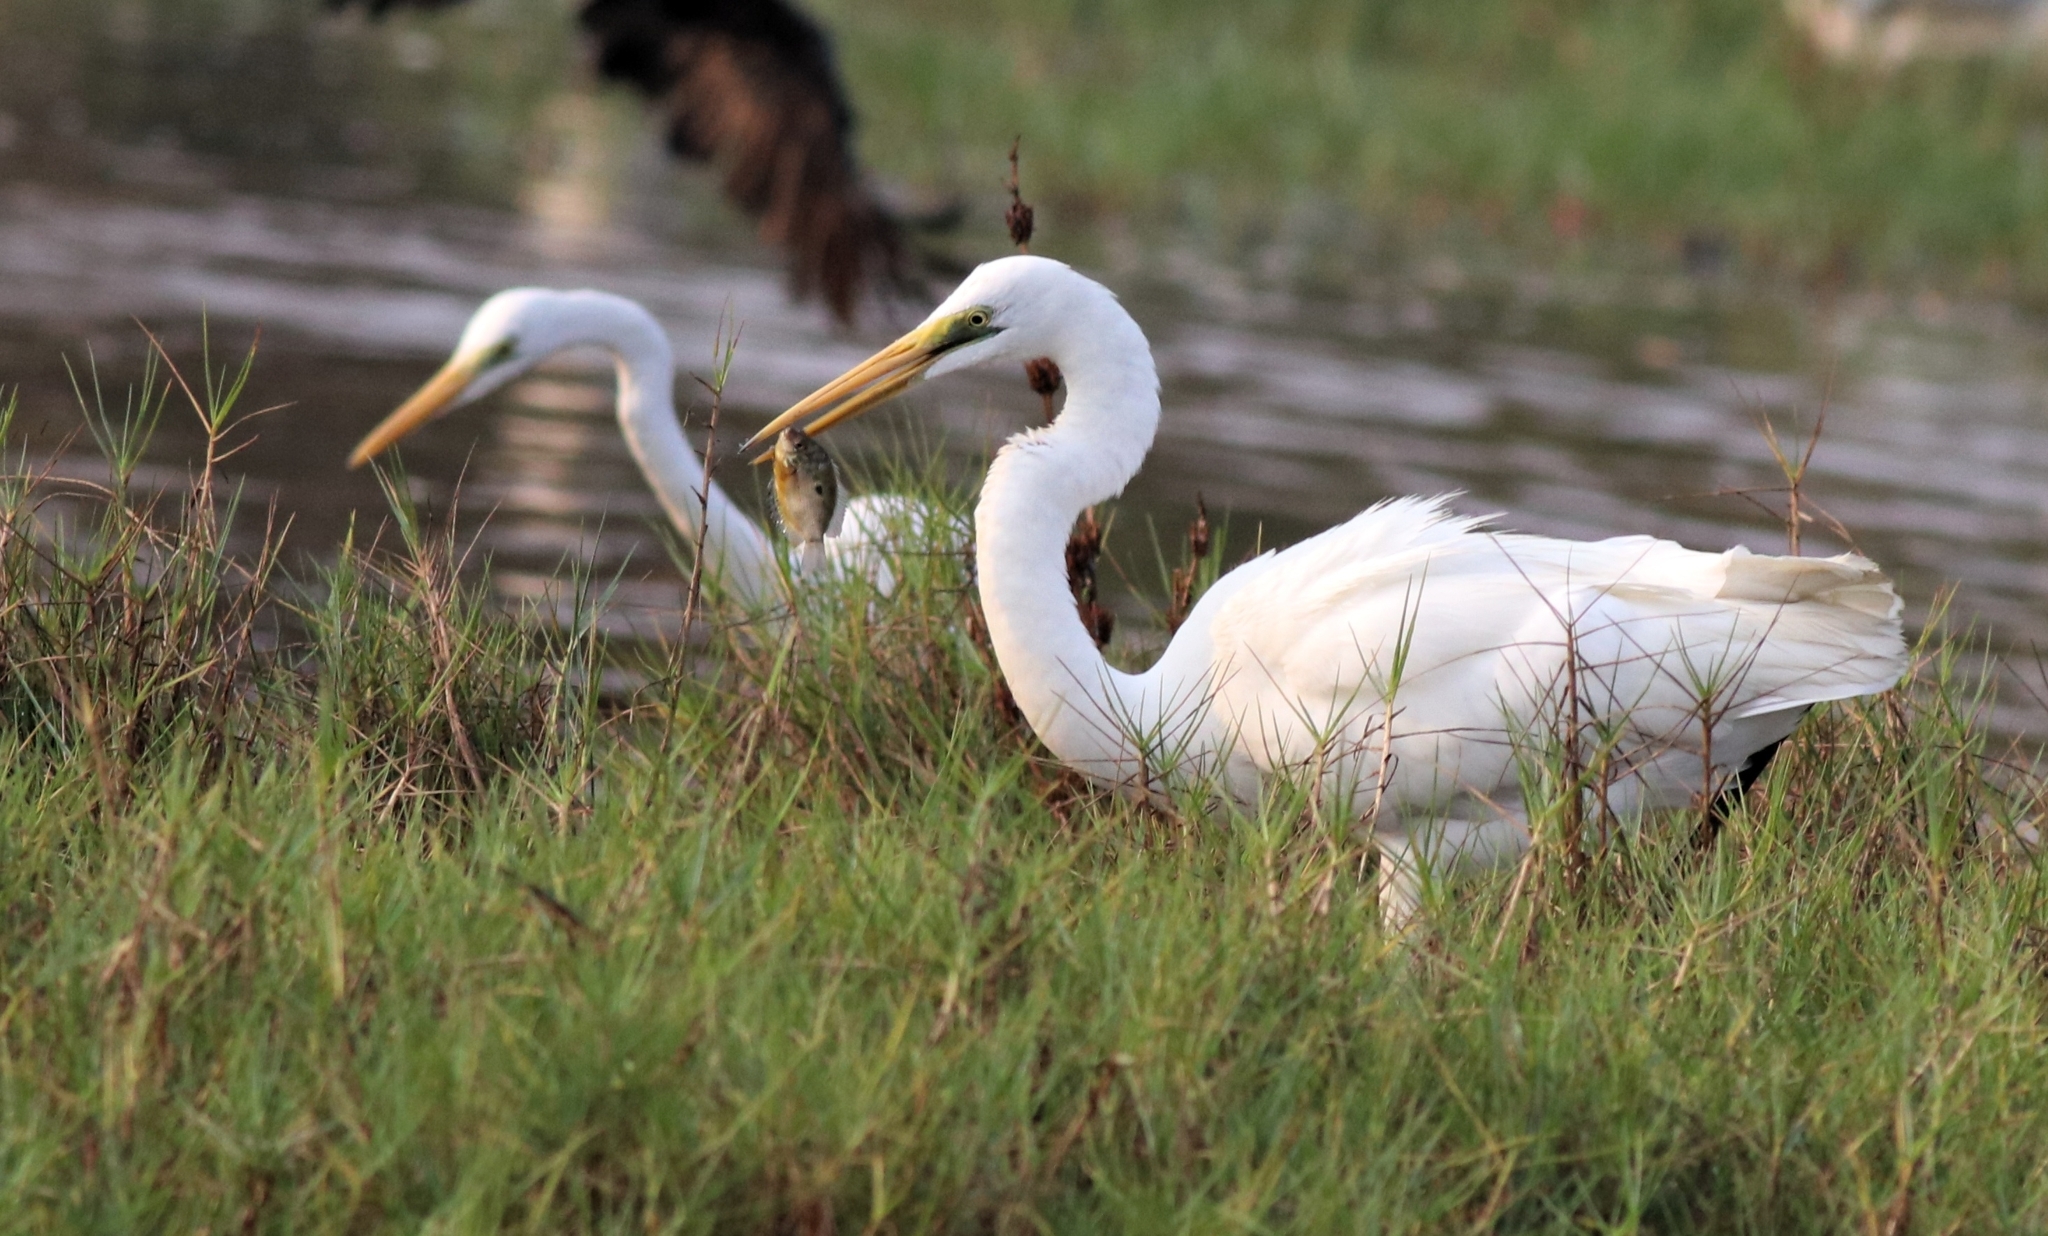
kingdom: Animalia
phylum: Chordata
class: Aves
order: Pelecaniformes
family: Ardeidae
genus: Ardea
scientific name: Ardea alba
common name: Great egret
